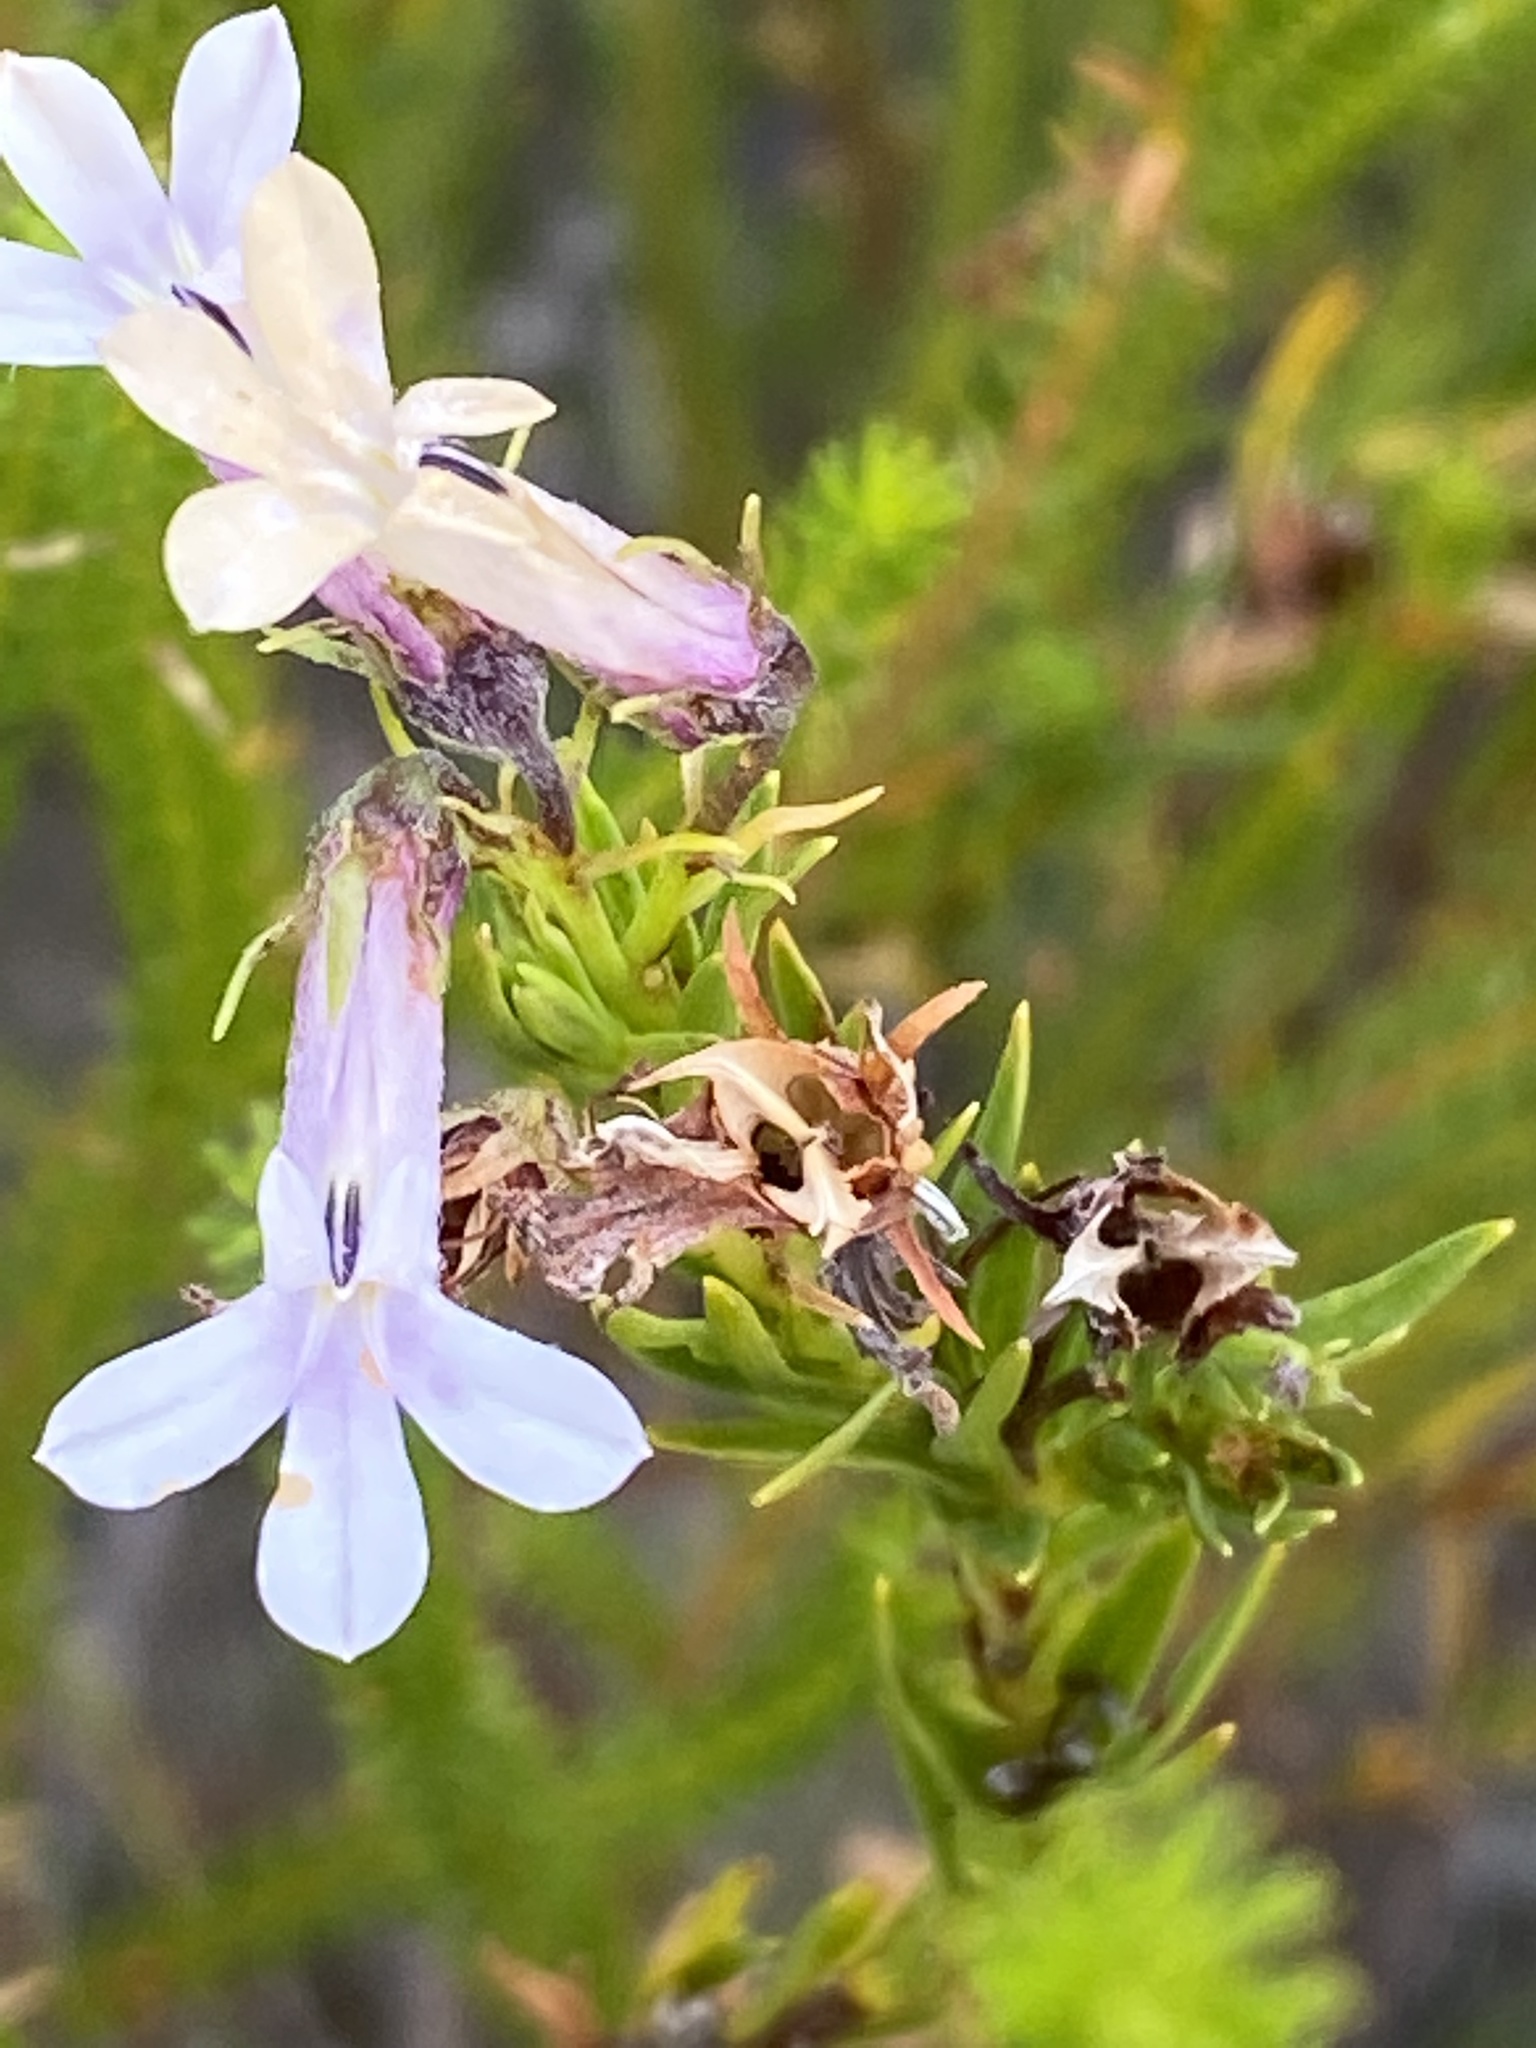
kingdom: Plantae
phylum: Tracheophyta
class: Magnoliopsida
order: Asterales
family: Campanulaceae
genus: Lobelia
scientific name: Lobelia pinifolia
